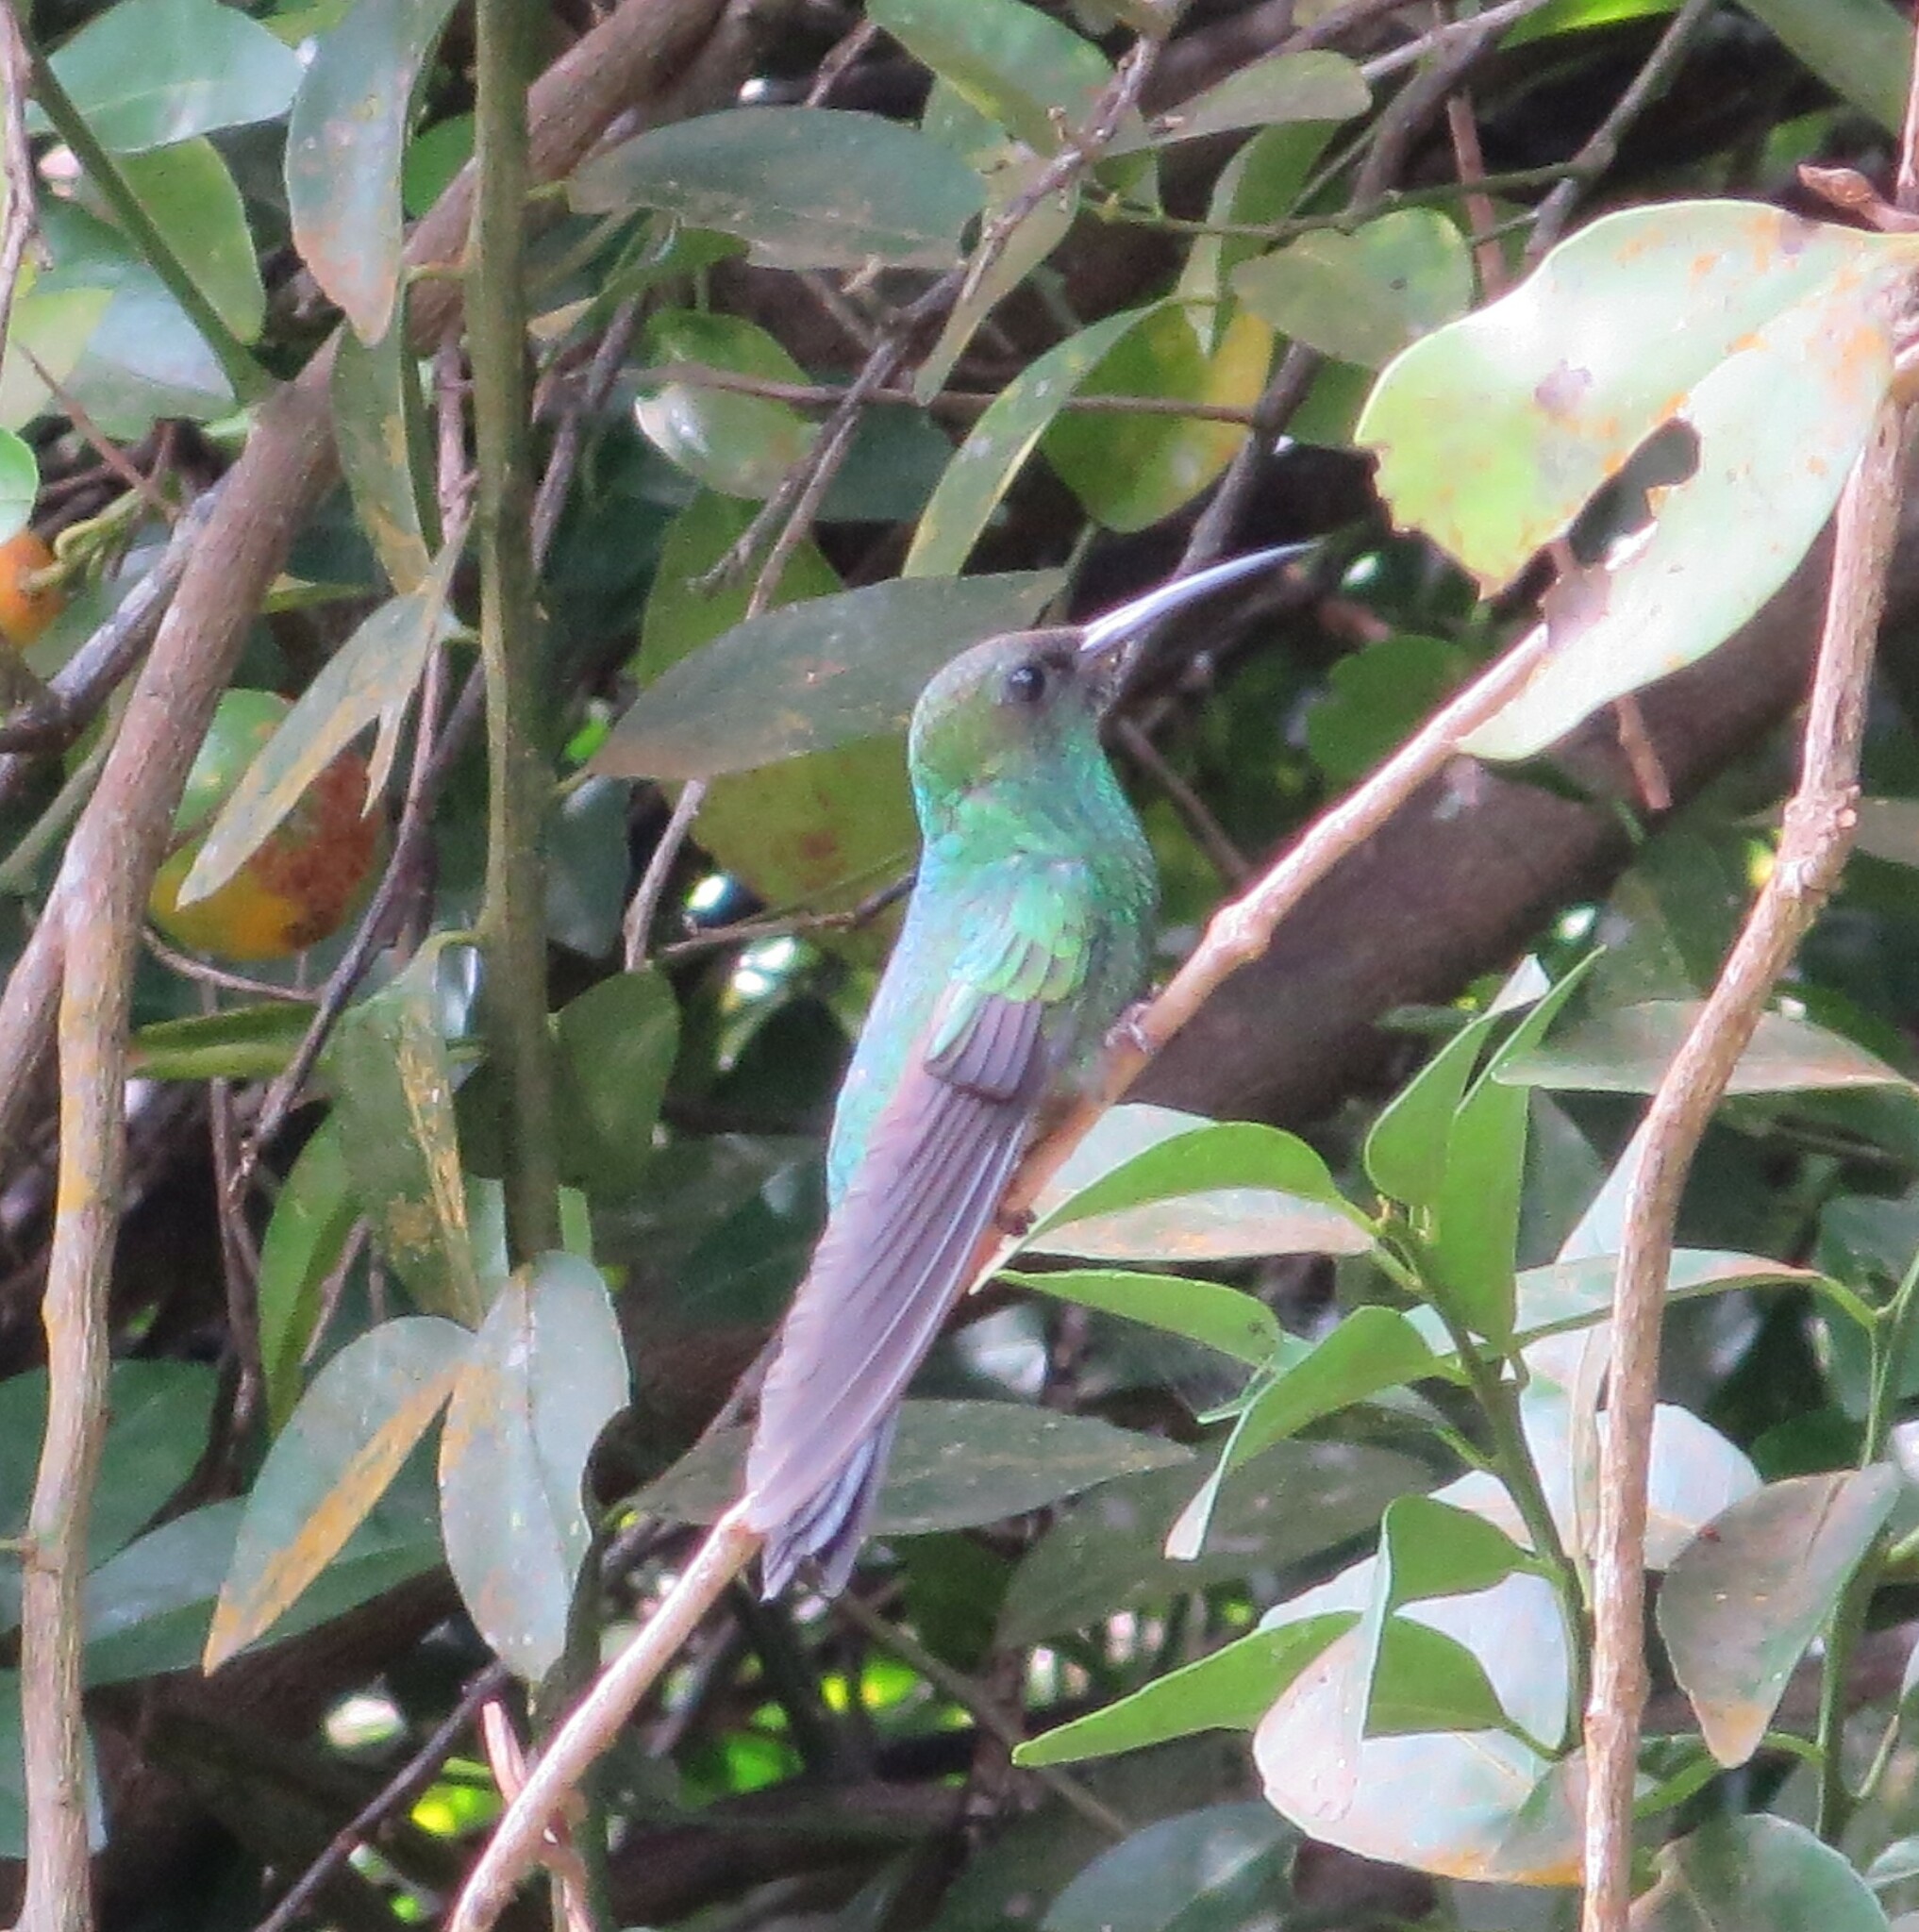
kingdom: Animalia
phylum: Chordata
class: Aves
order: Apodiformes
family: Trochilidae
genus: Chalybura
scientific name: Chalybura buffonii
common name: White-vented plumeleteer
